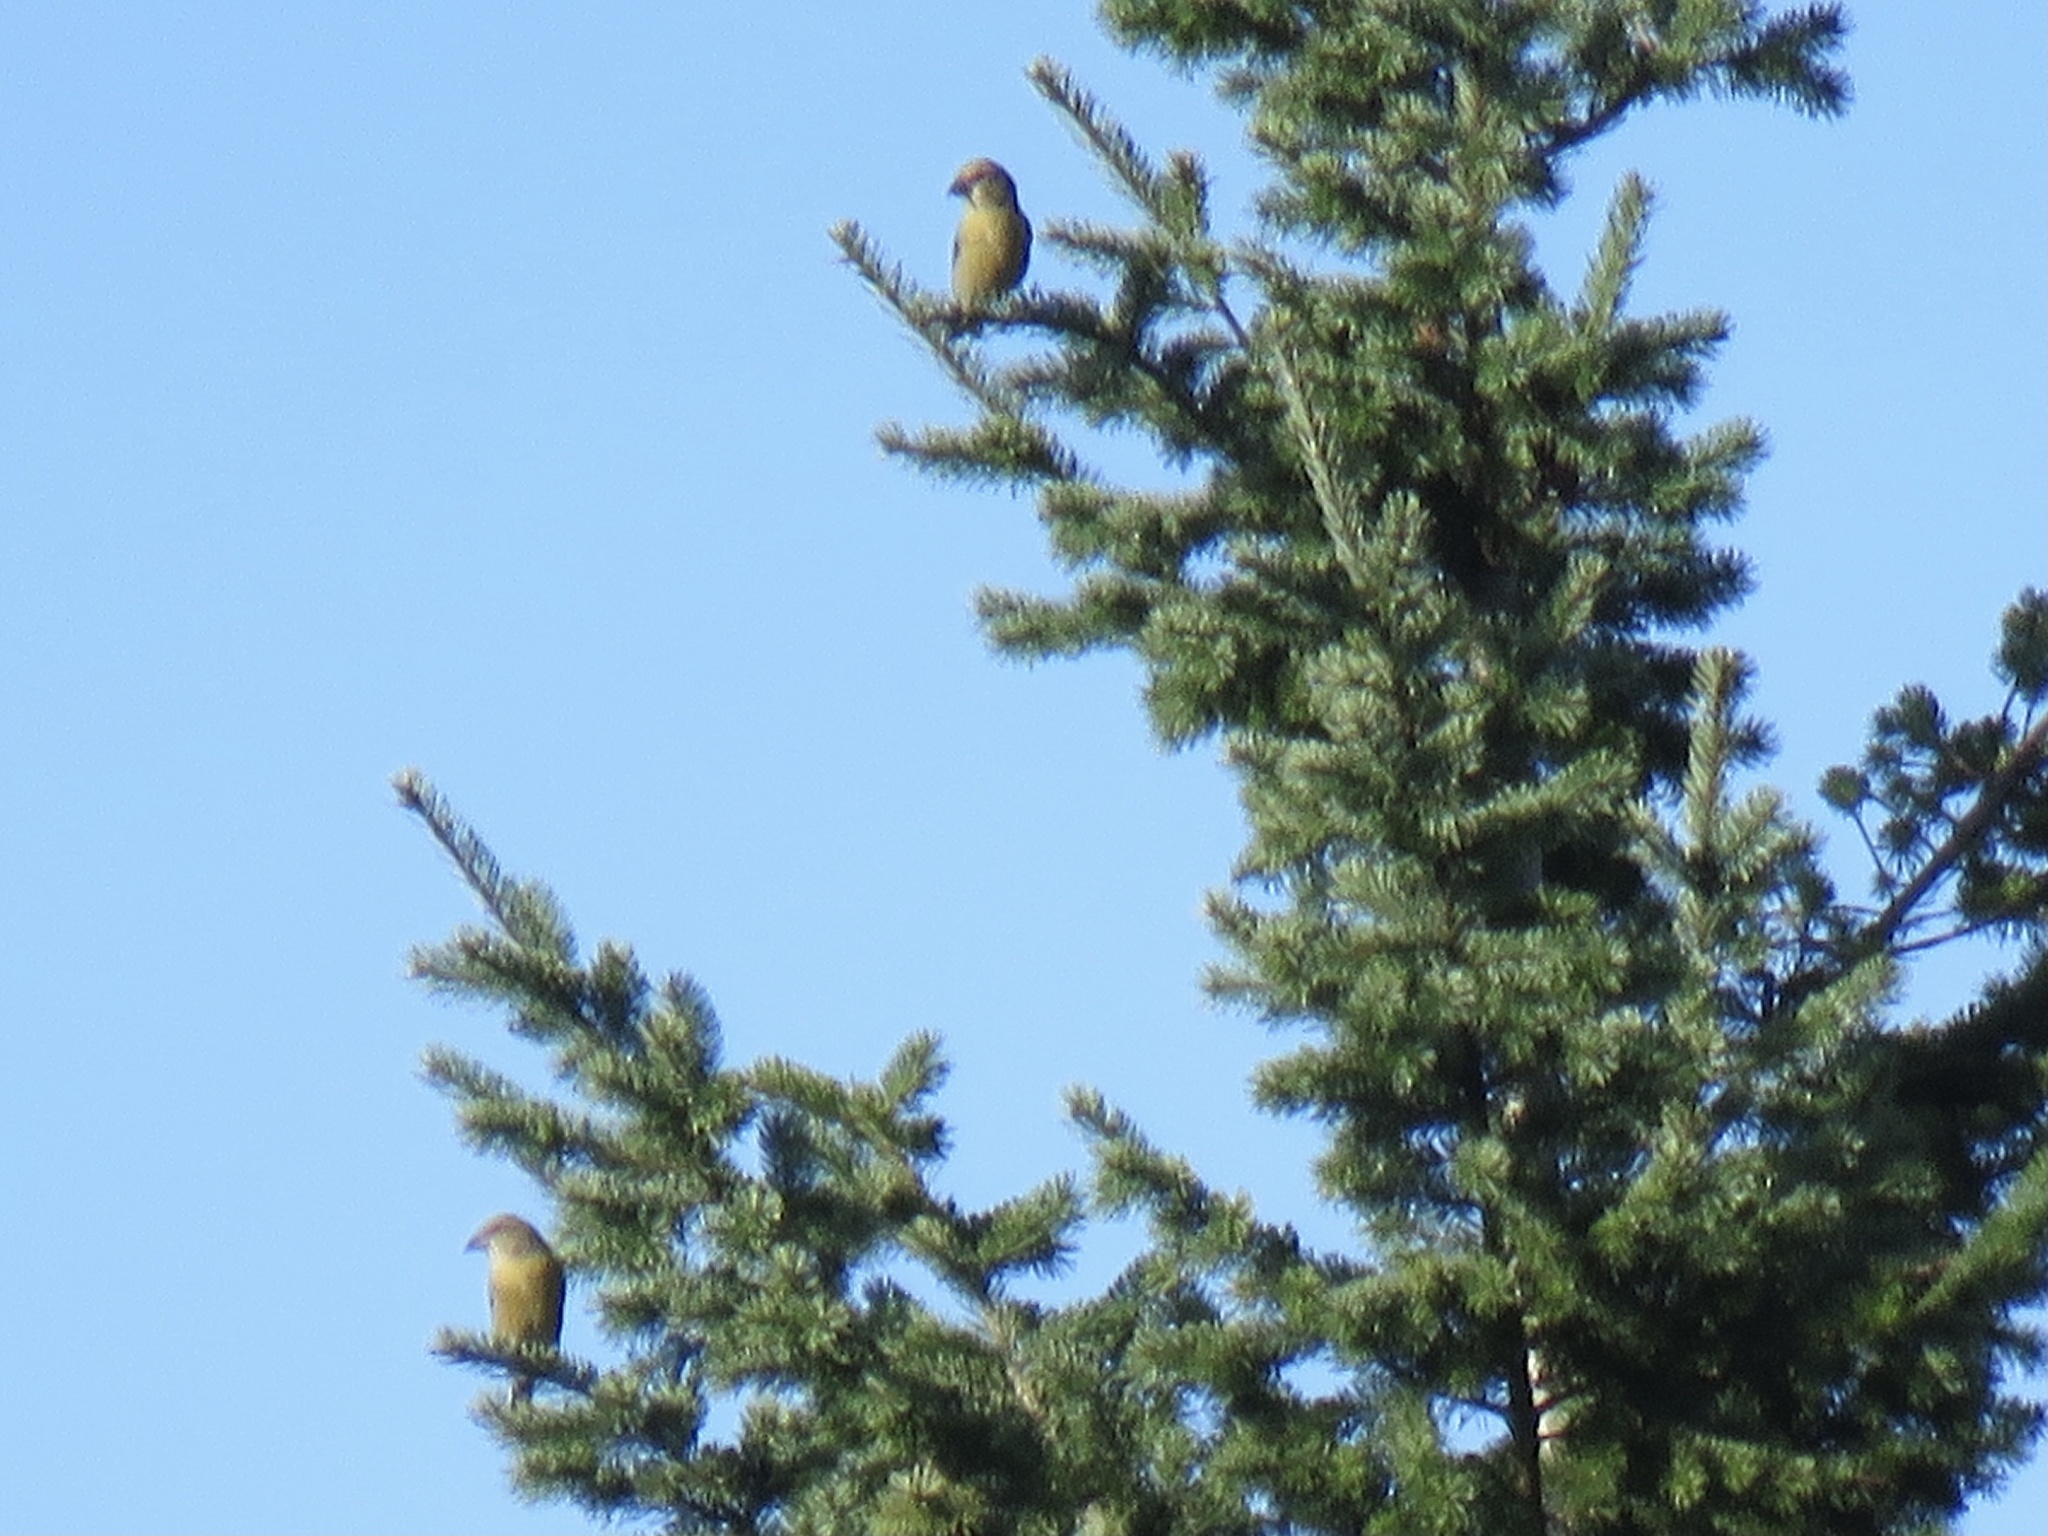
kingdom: Animalia
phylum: Chordata
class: Aves
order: Passeriformes
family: Fringillidae
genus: Loxia
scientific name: Loxia curvirostra
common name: Red crossbill
